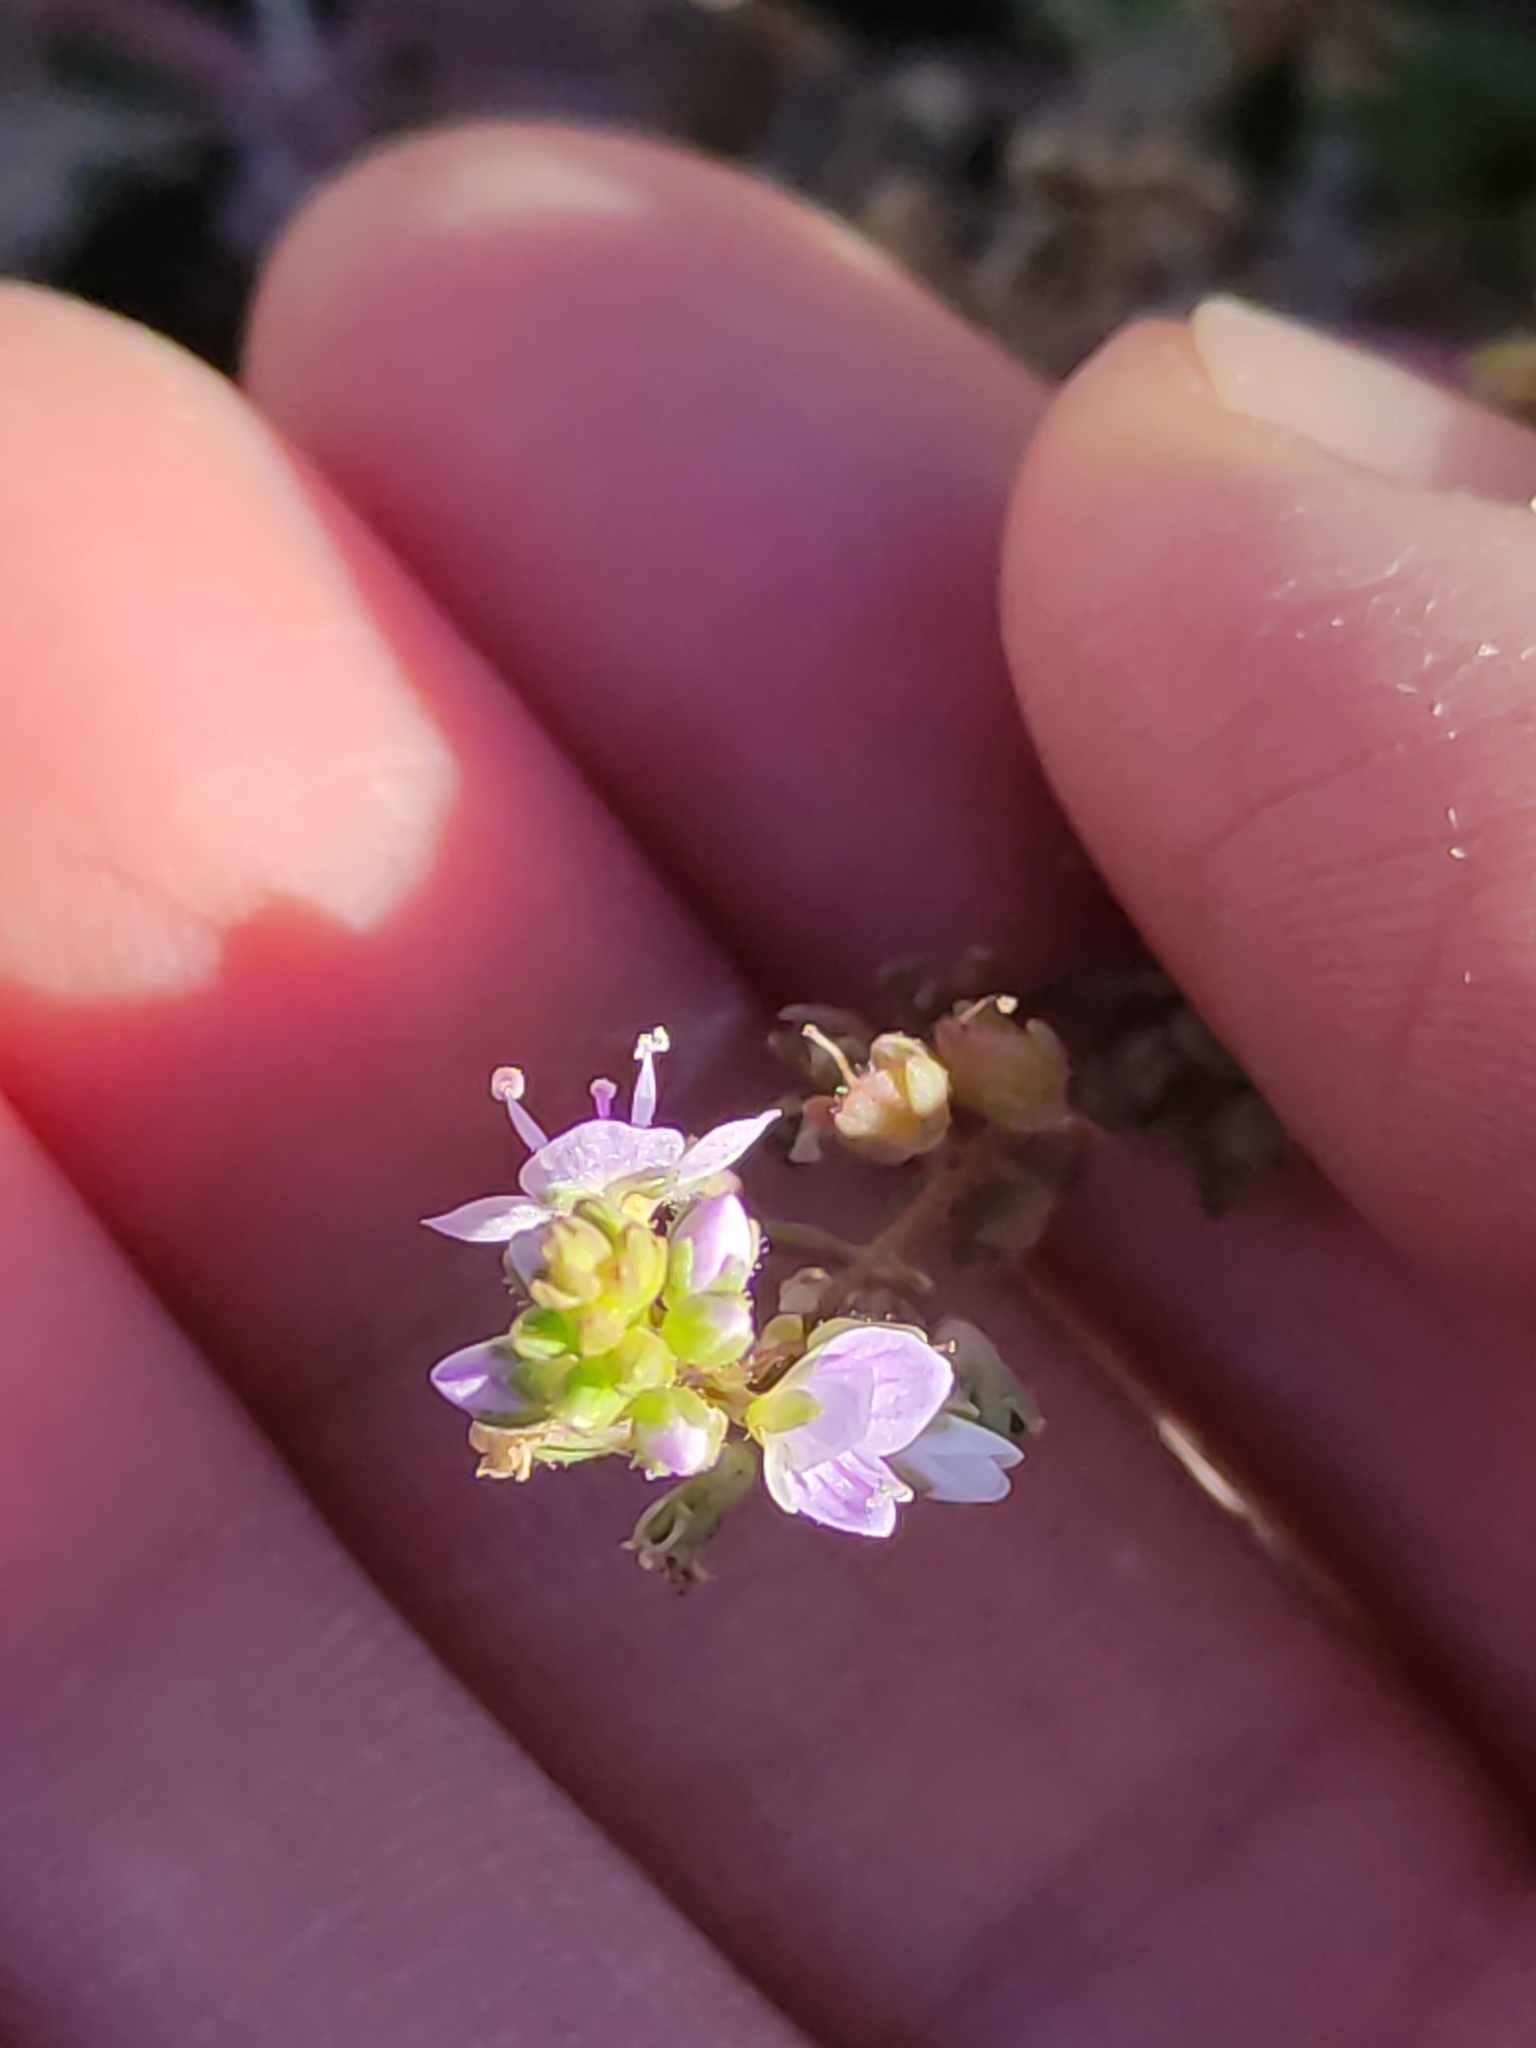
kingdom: Plantae
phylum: Tracheophyta
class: Magnoliopsida
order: Lamiales
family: Plantaginaceae
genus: Veronica
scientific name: Veronica anagallis-aquatica
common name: Water speedwell
